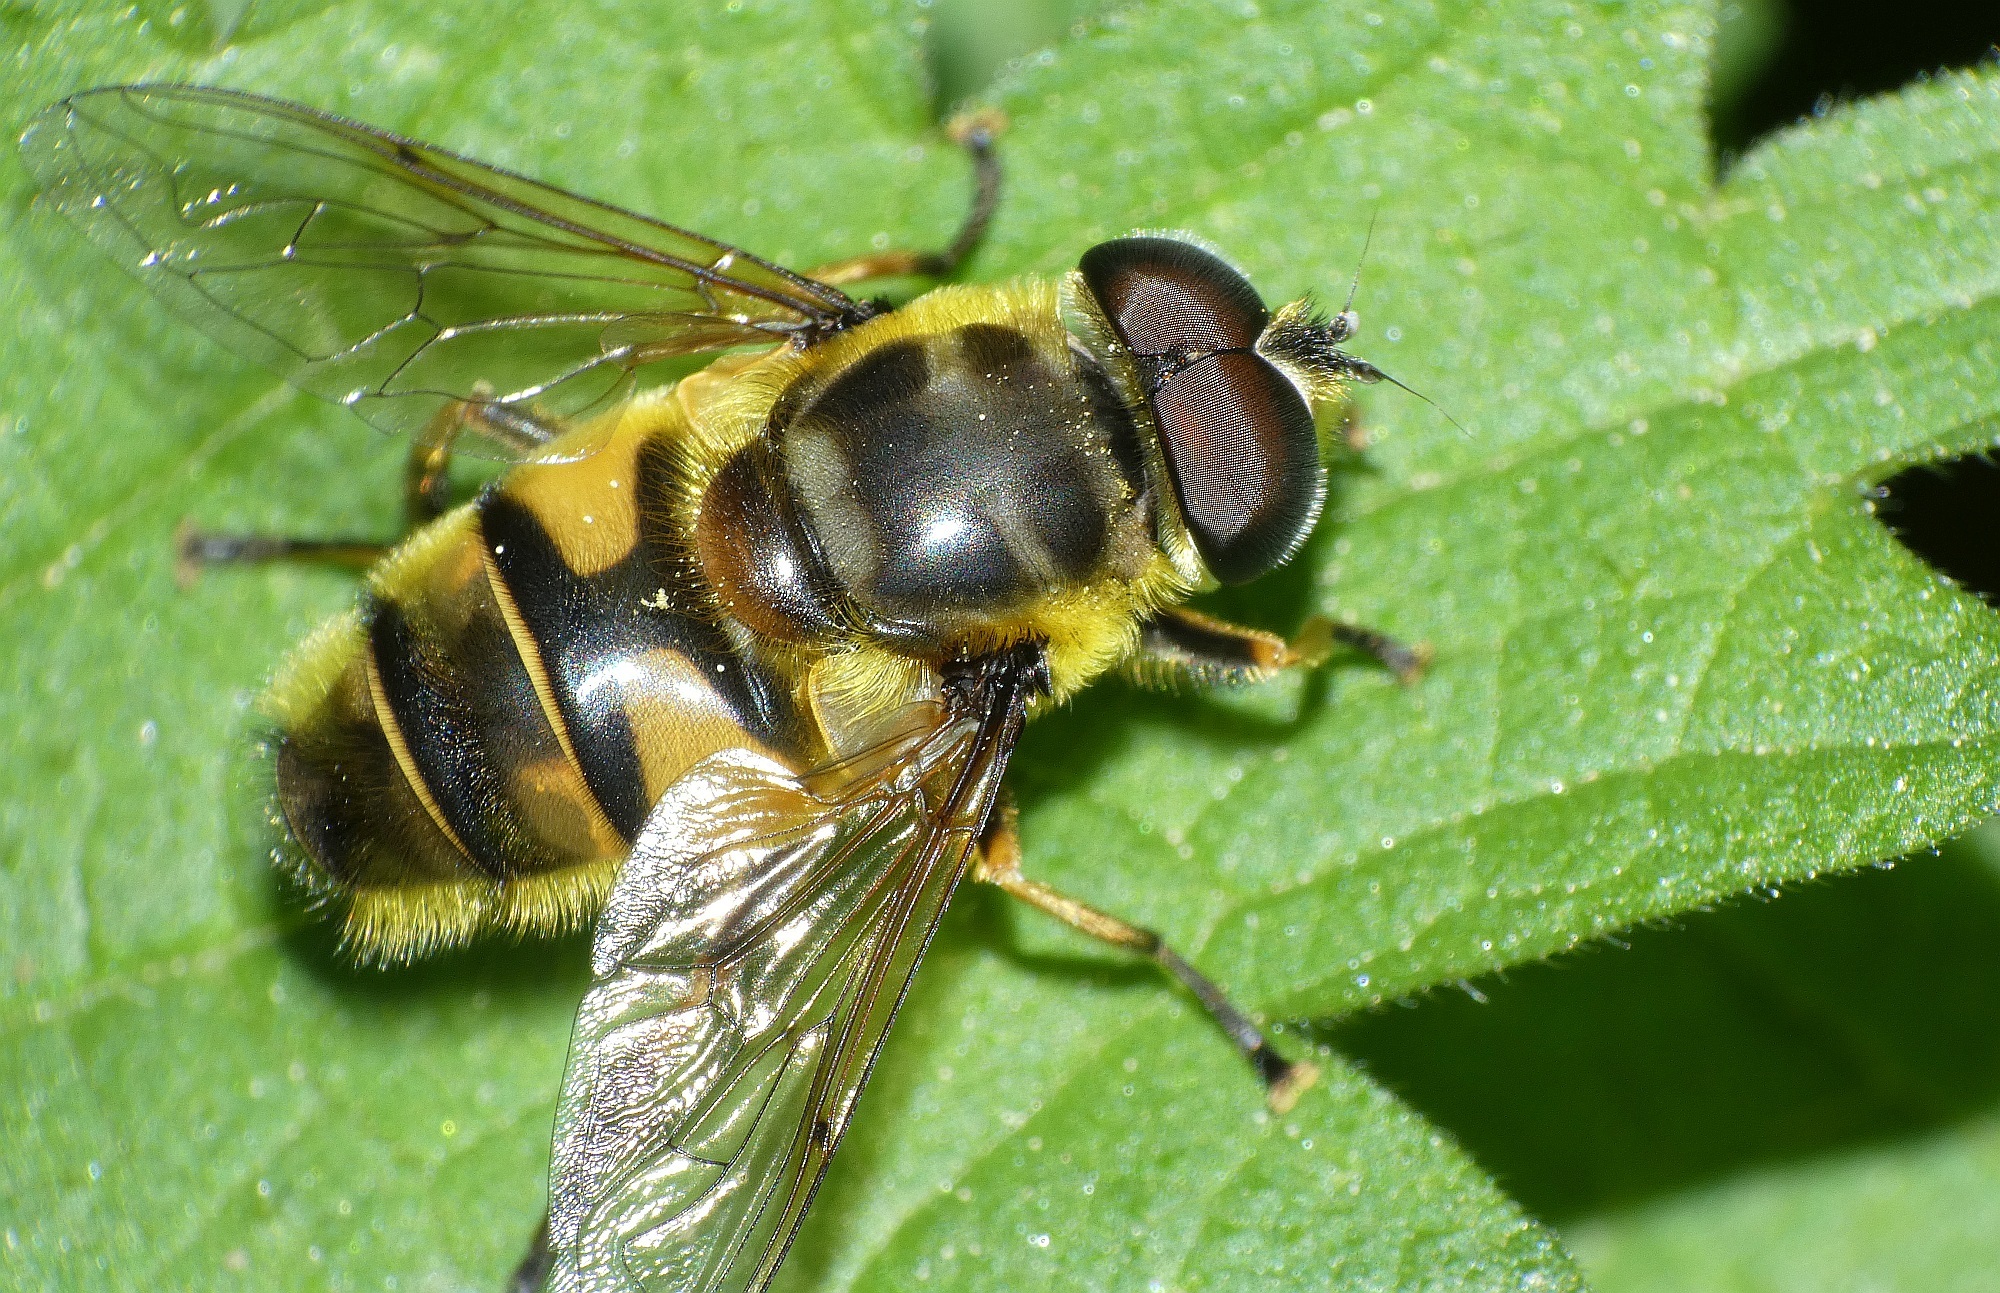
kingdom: Animalia
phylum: Arthropoda
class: Insecta
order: Diptera
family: Syrphidae
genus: Myathropa
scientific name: Myathropa florea
